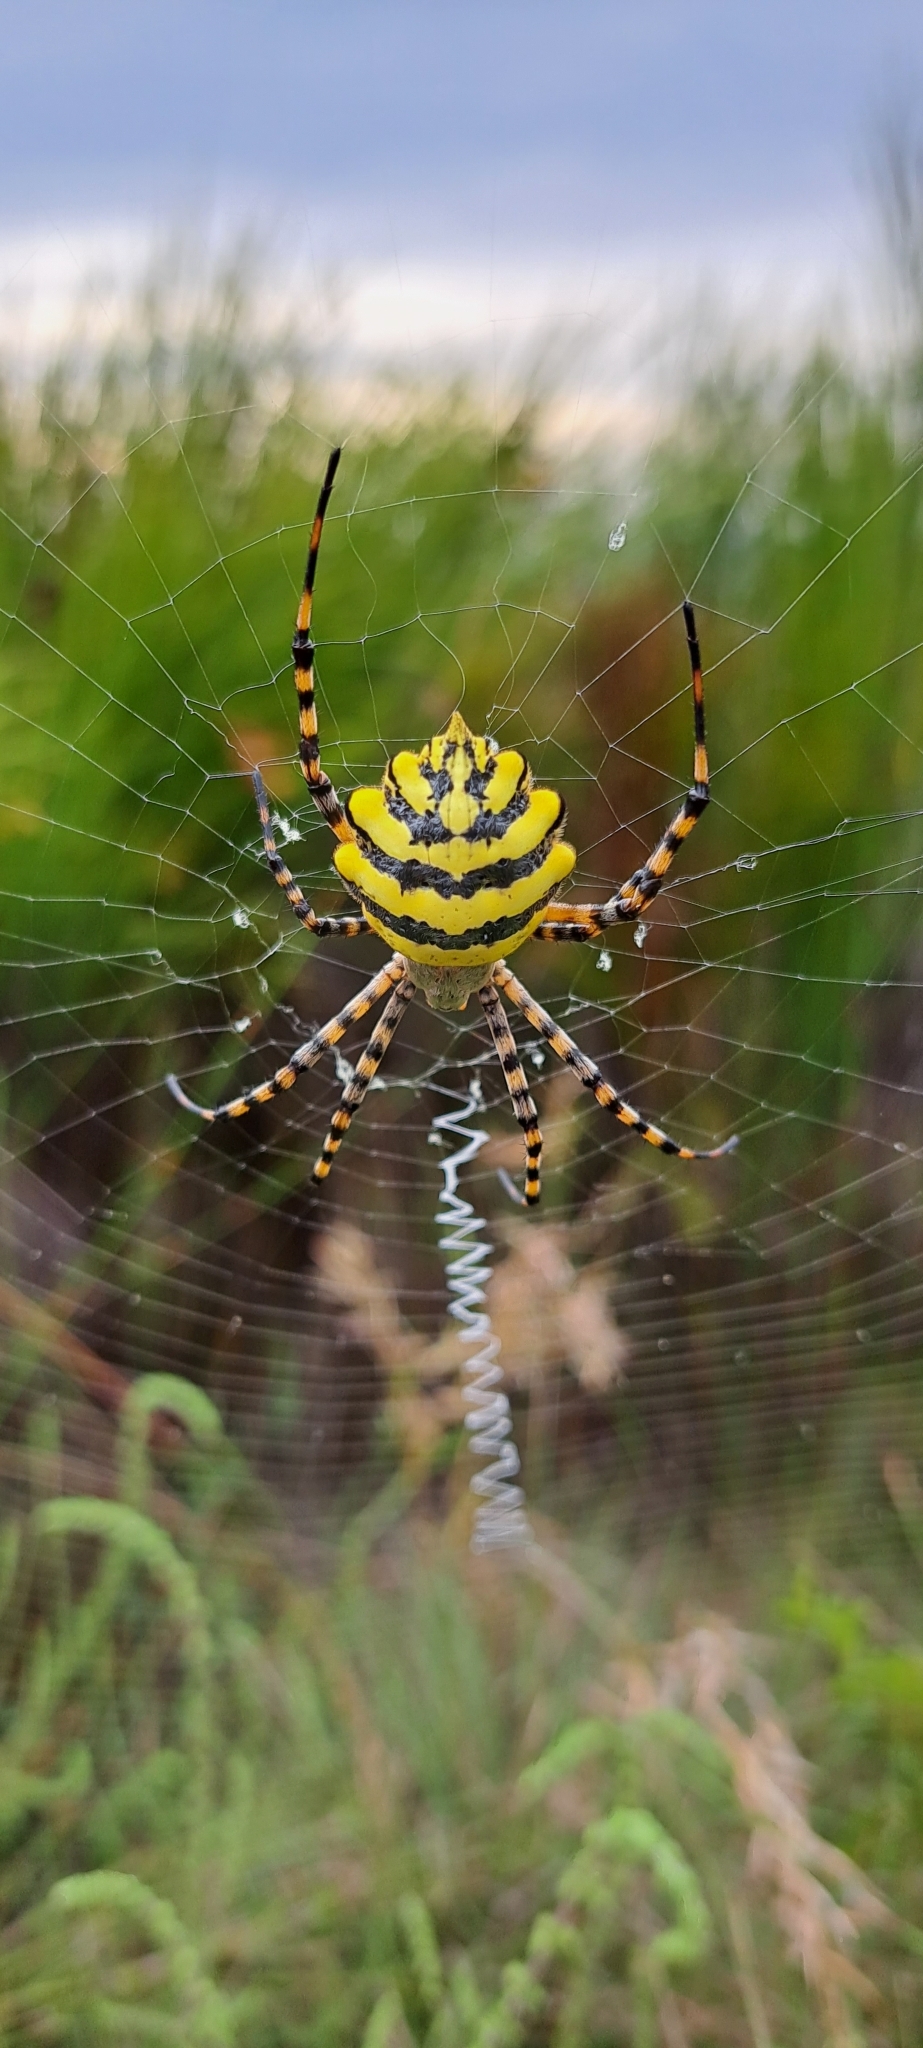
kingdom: Animalia
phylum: Arthropoda
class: Arachnida
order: Araneae
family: Araneidae
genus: Argiope
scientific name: Argiope australis
